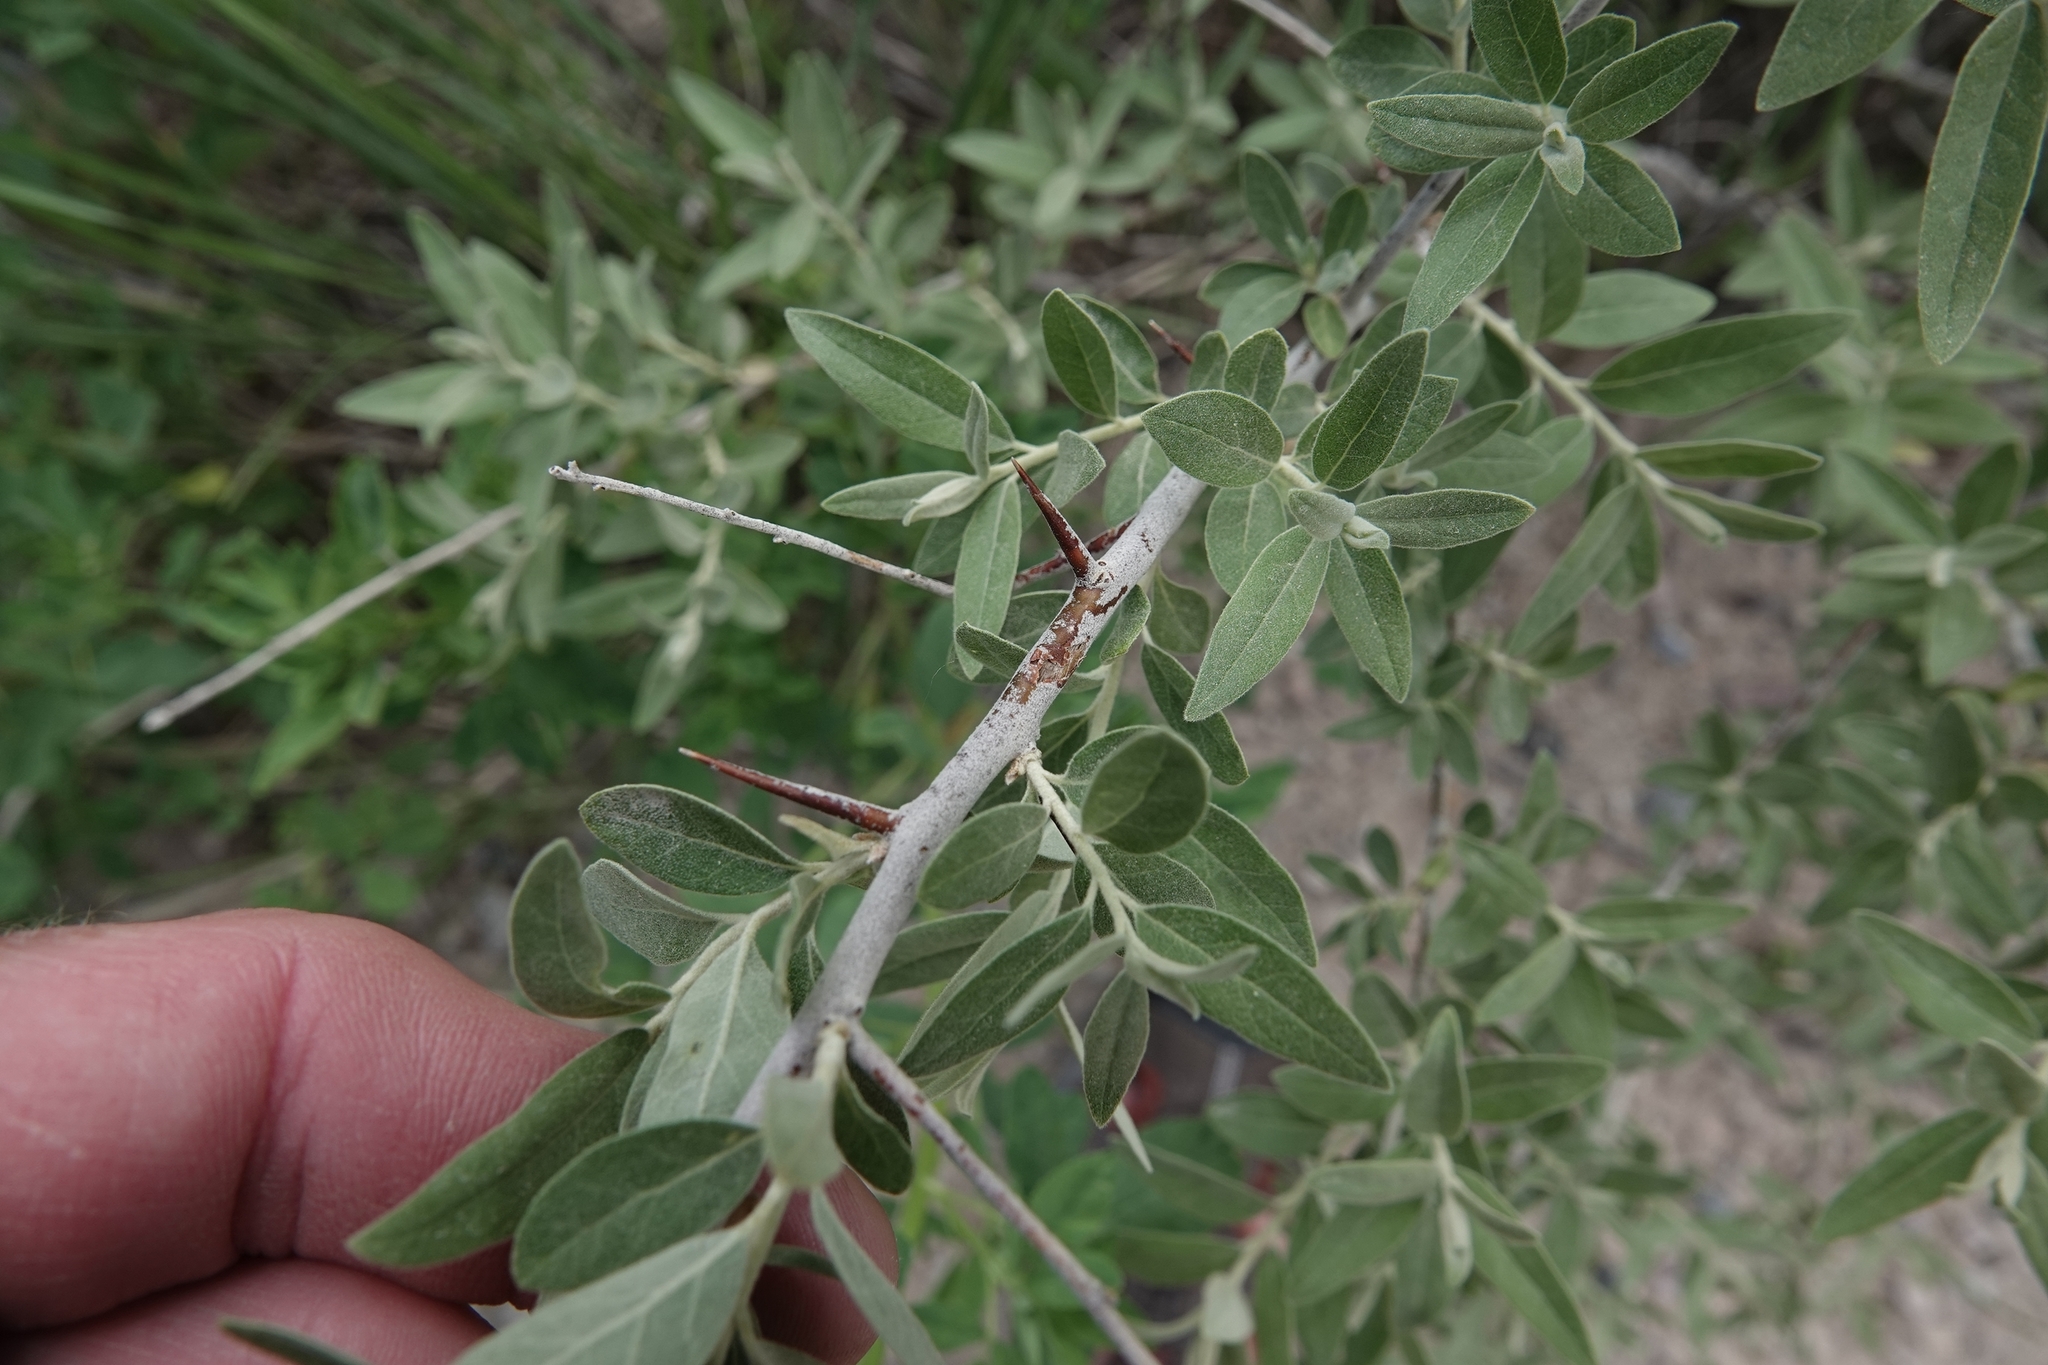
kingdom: Plantae
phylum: Tracheophyta
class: Magnoliopsida
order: Rosales
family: Elaeagnaceae
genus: Elaeagnus
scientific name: Elaeagnus angustifolia
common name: Russian olive
